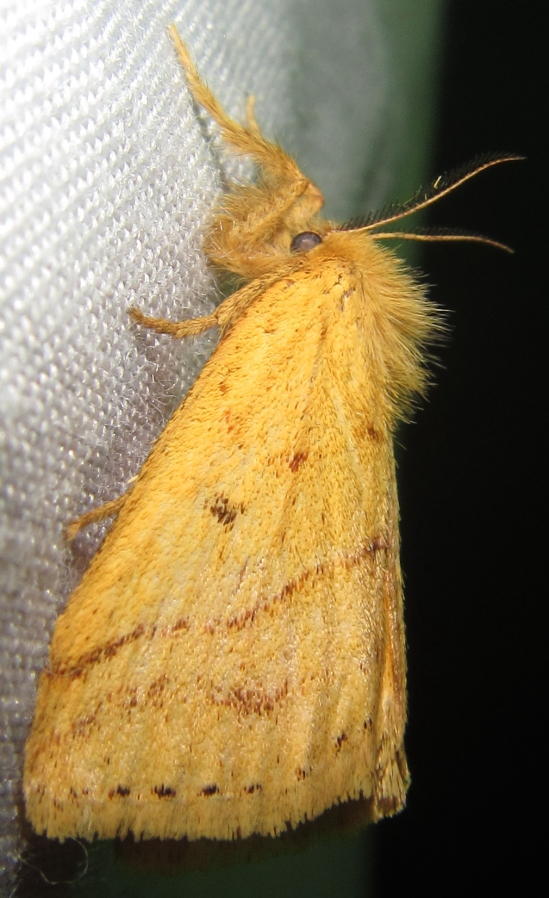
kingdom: Animalia
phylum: Arthropoda
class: Insecta
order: Lepidoptera
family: Erebidae
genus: Aroa
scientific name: Aroa discalis
